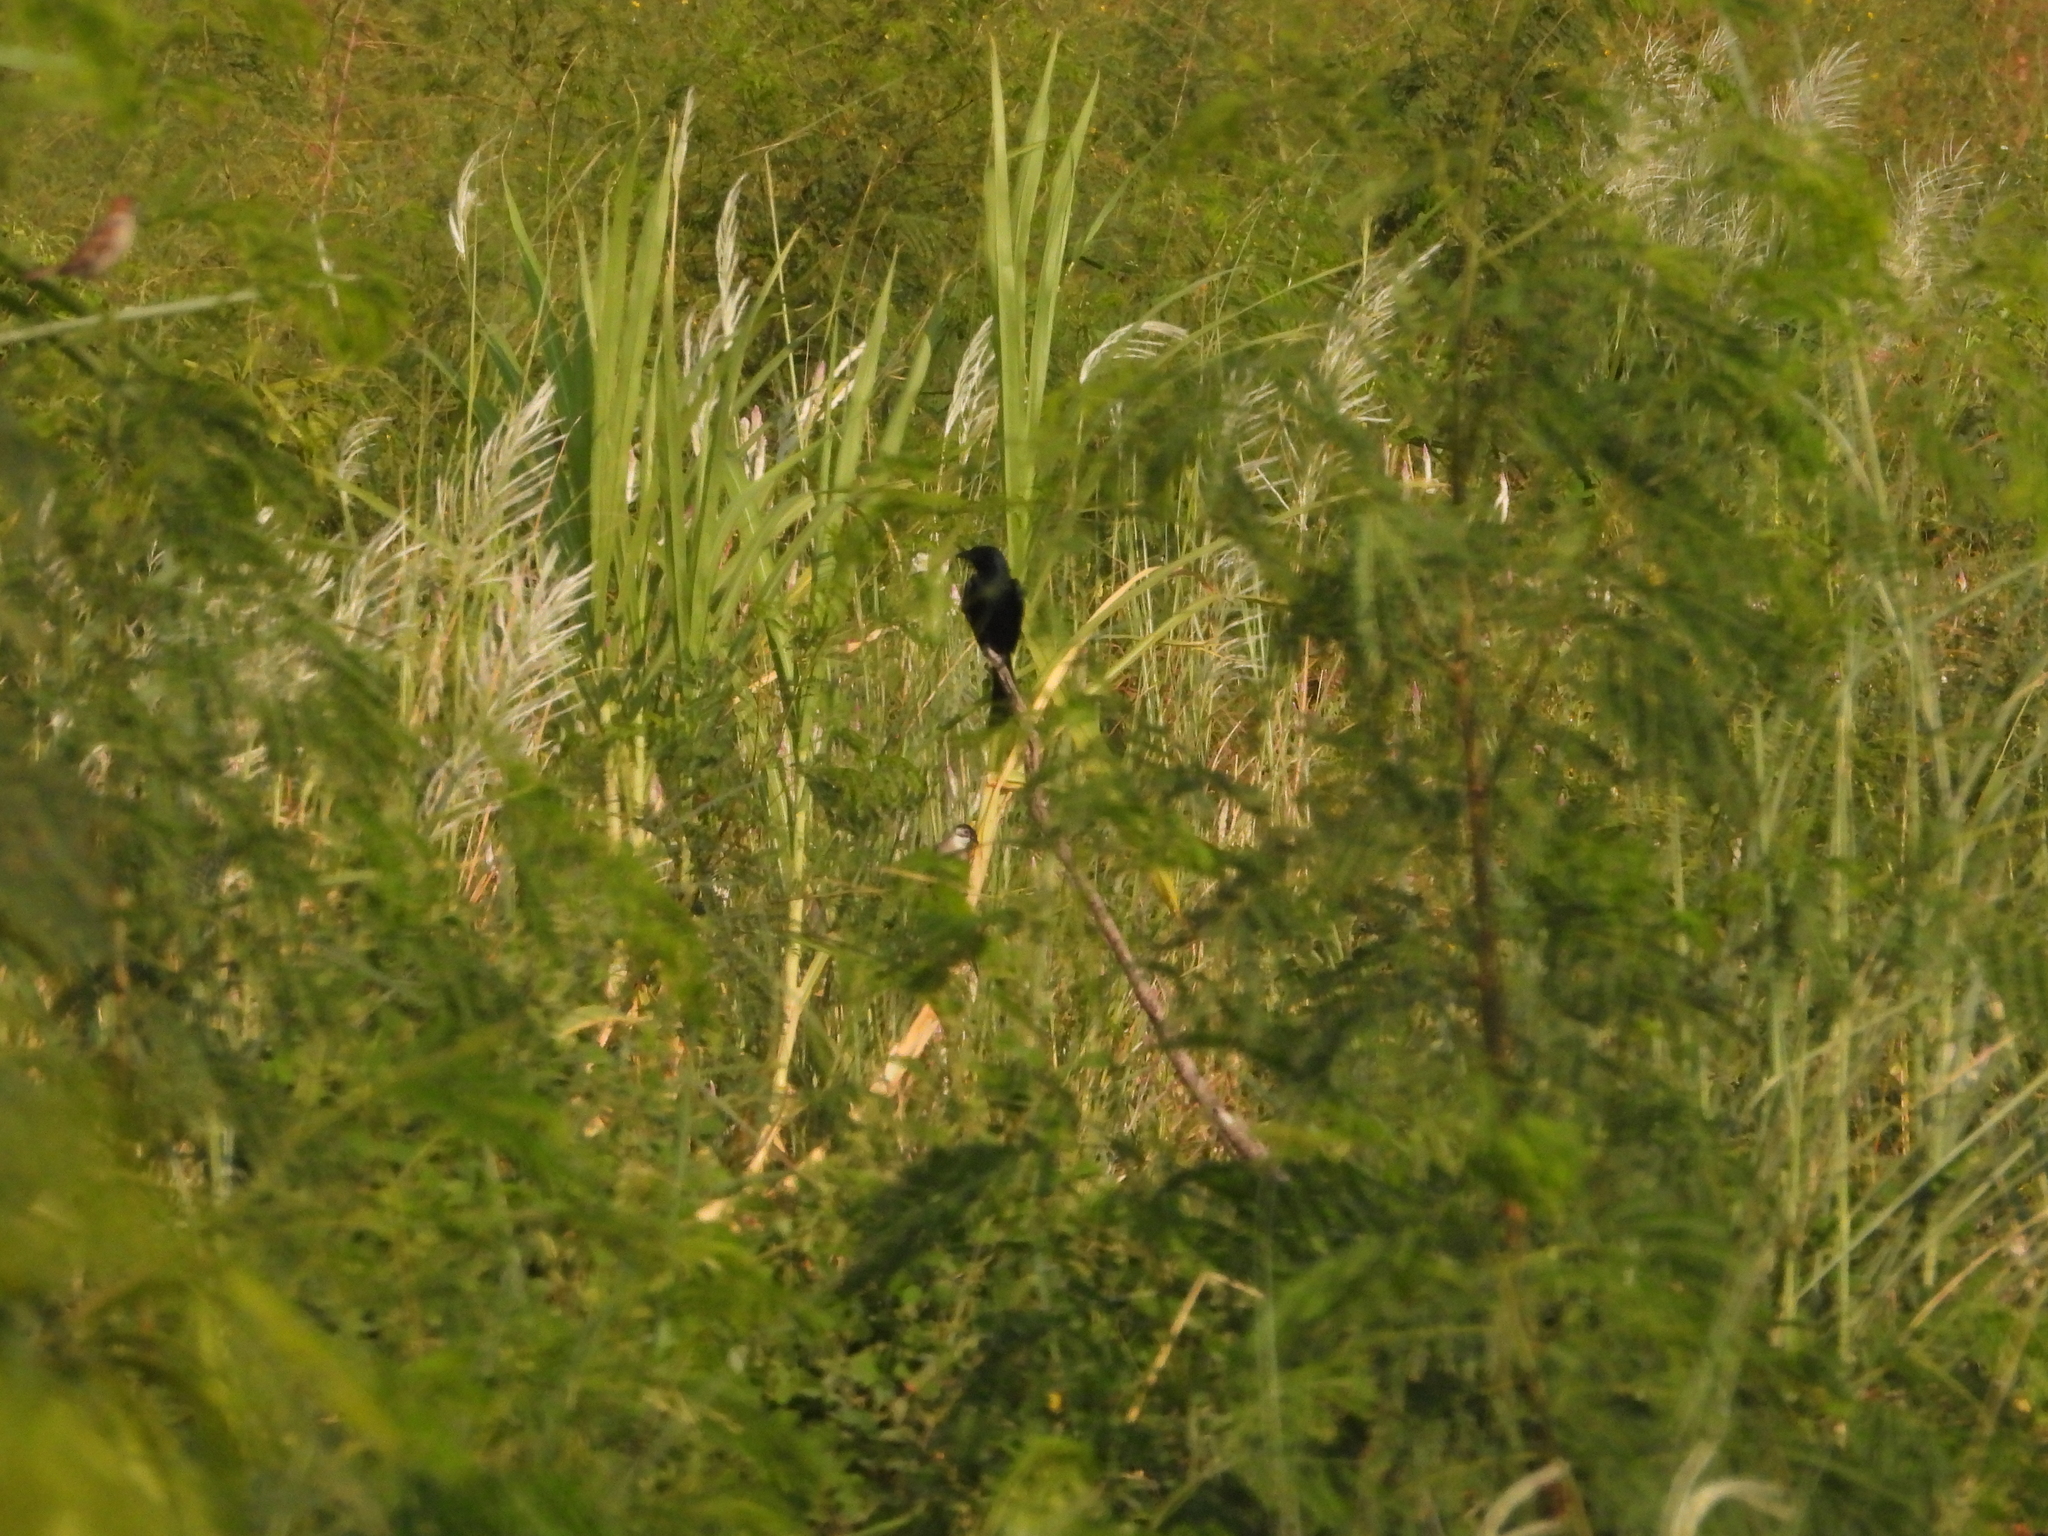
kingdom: Animalia
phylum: Chordata
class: Aves
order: Passeriformes
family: Dicruridae
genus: Dicrurus
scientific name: Dicrurus macrocercus
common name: Black drongo
